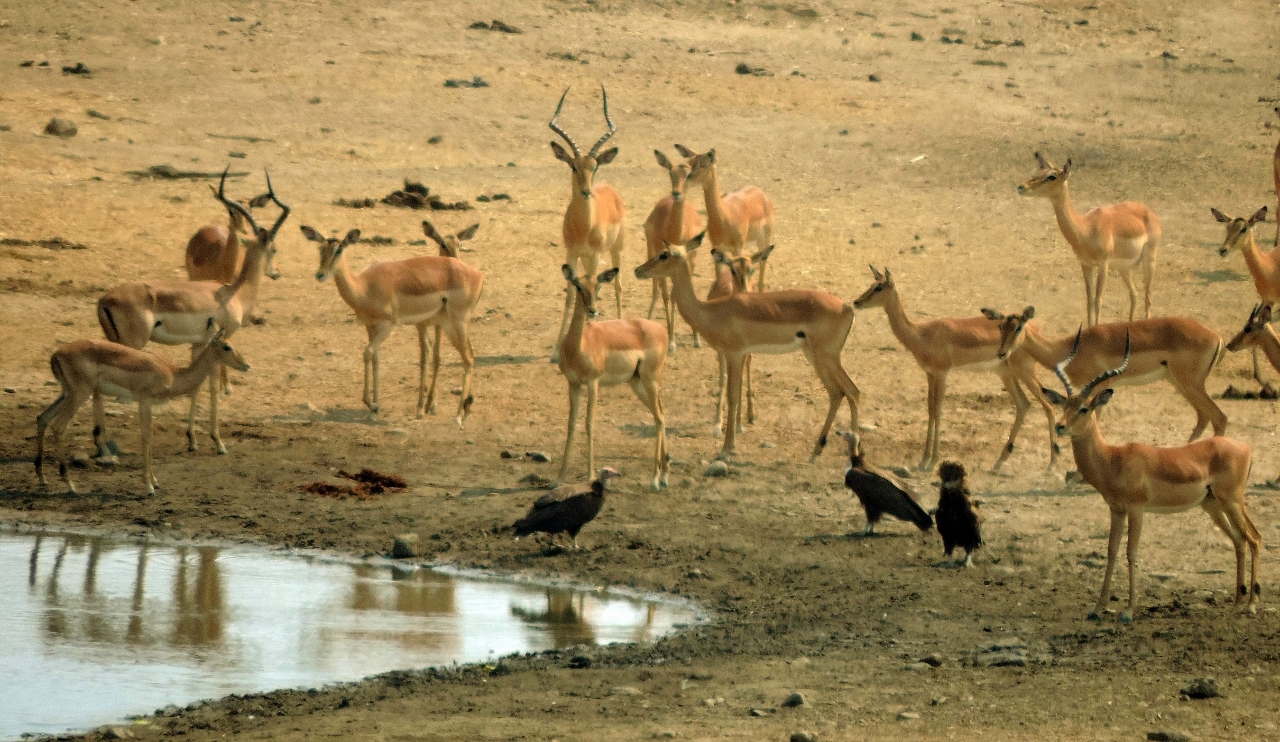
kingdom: Animalia
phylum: Chordata
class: Mammalia
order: Artiodactyla
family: Bovidae
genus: Aepyceros
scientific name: Aepyceros melampus
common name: Impala
